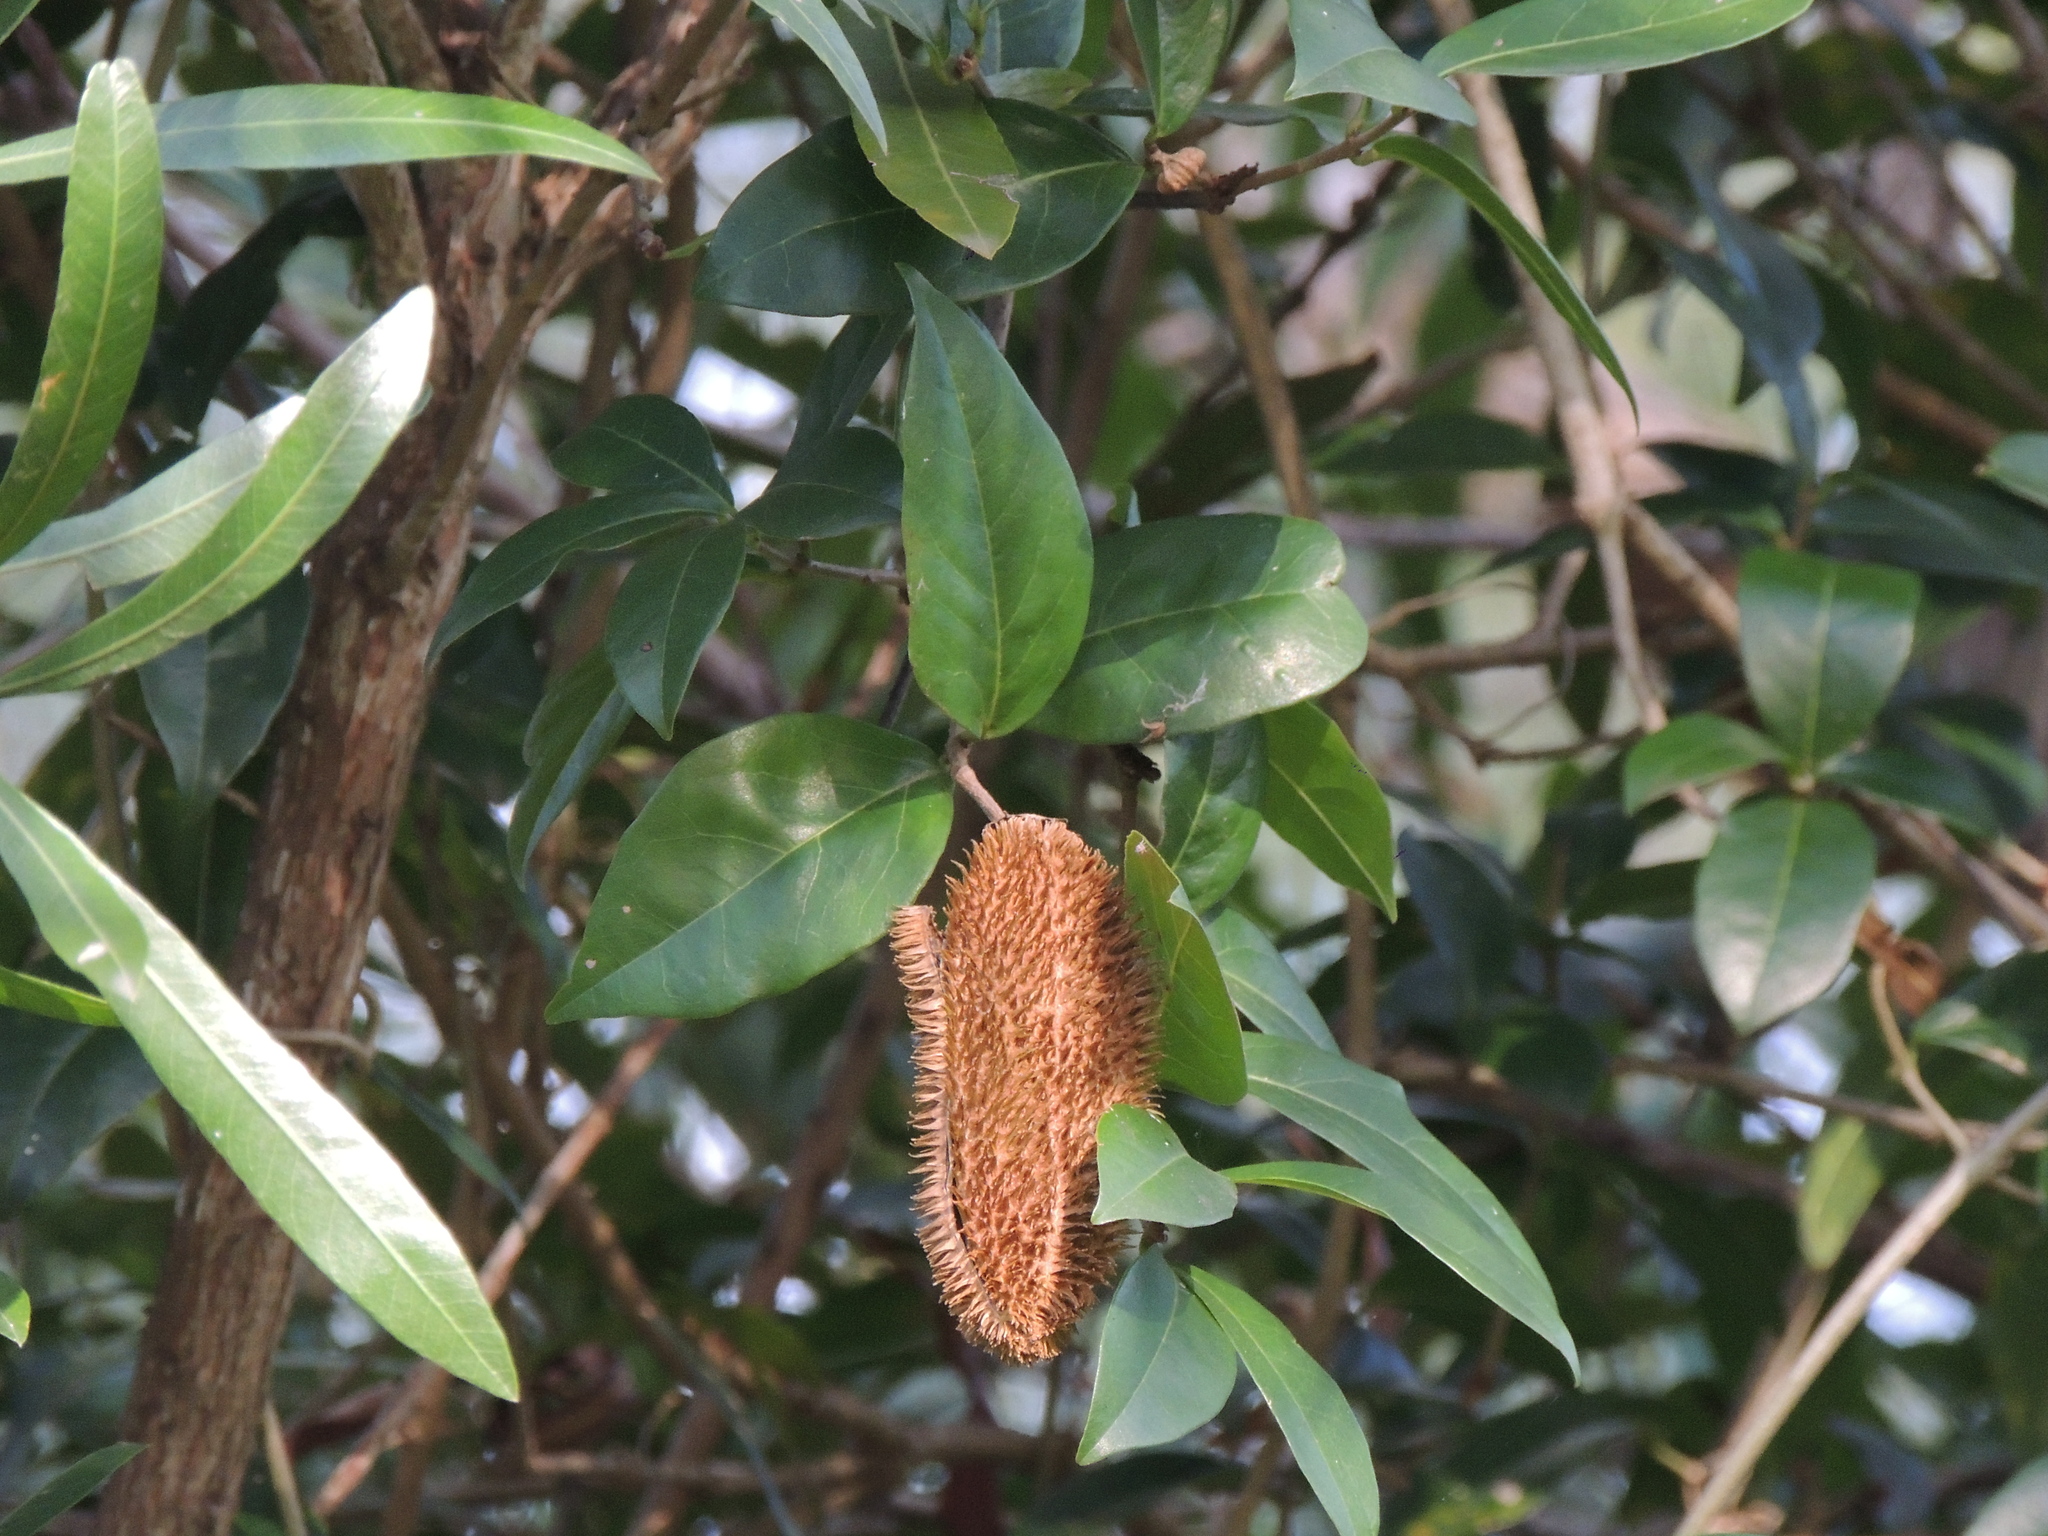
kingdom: Plantae
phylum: Tracheophyta
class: Magnoliopsida
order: Lamiales
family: Bignoniaceae
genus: Bignonia
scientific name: Bignonia callistegioides
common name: Argentine trumpetvine
